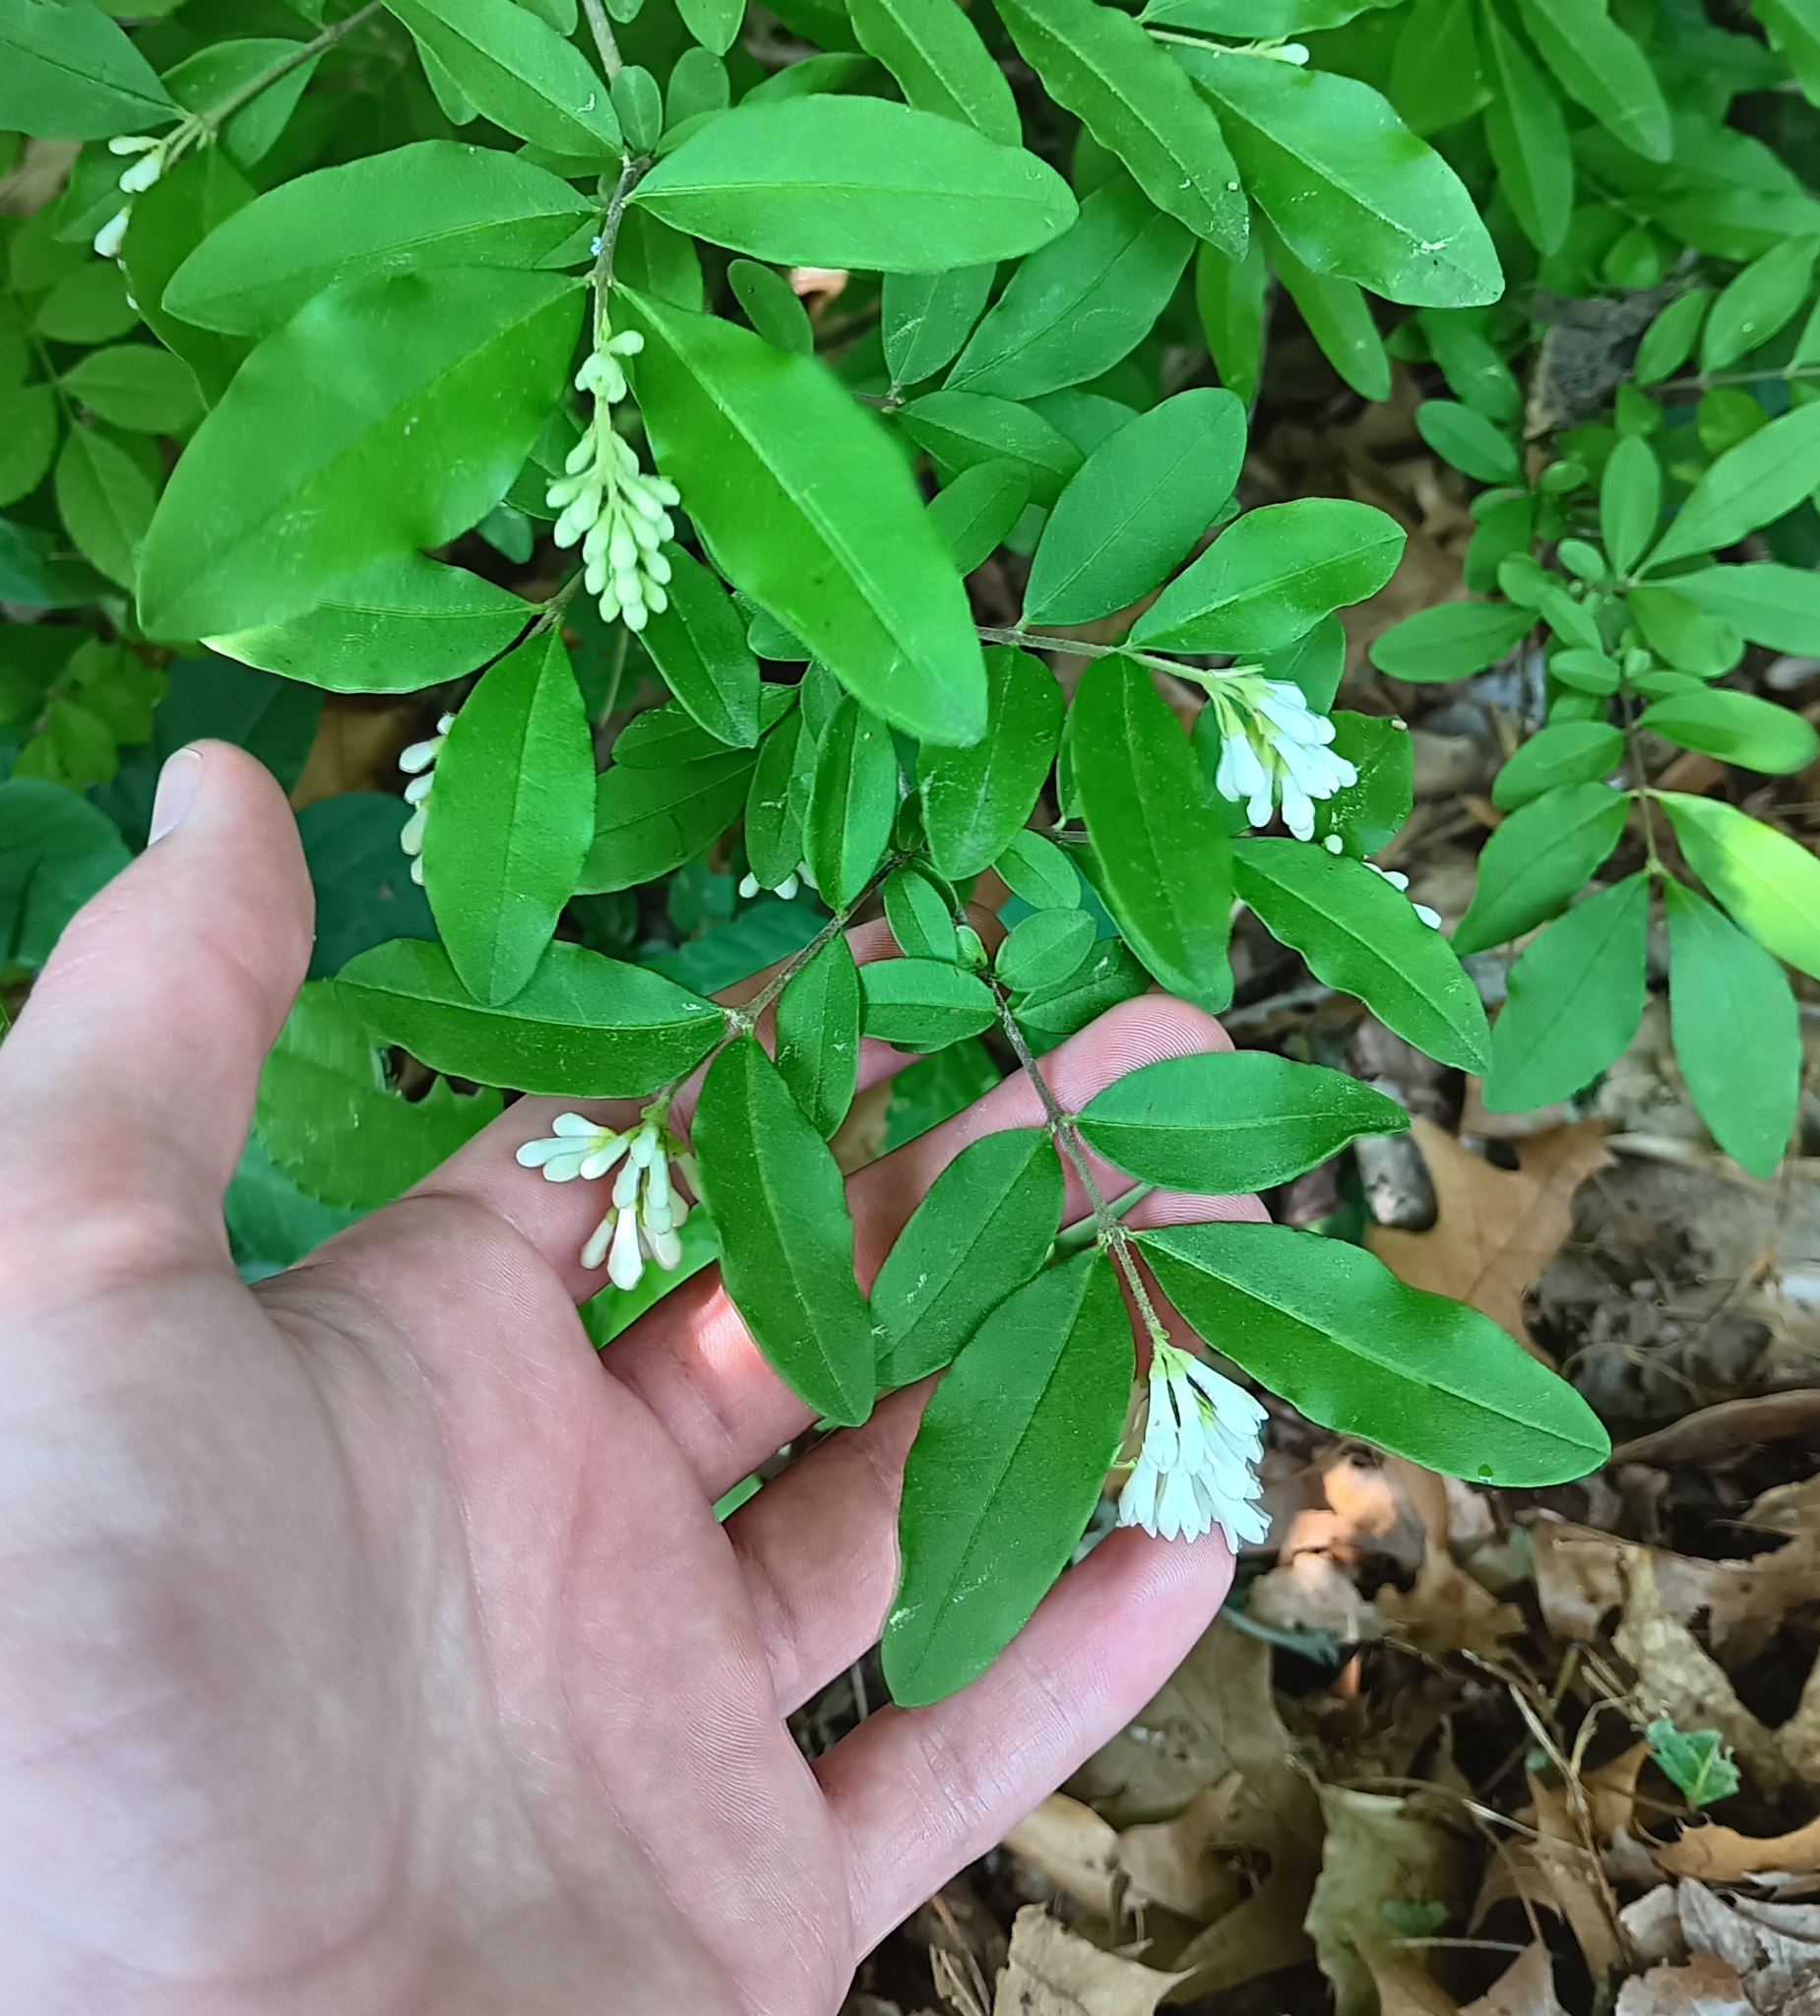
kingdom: Plantae
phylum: Tracheophyta
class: Magnoliopsida
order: Lamiales
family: Oleaceae
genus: Ligustrum
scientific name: Ligustrum obtusifolium
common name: Border privet
